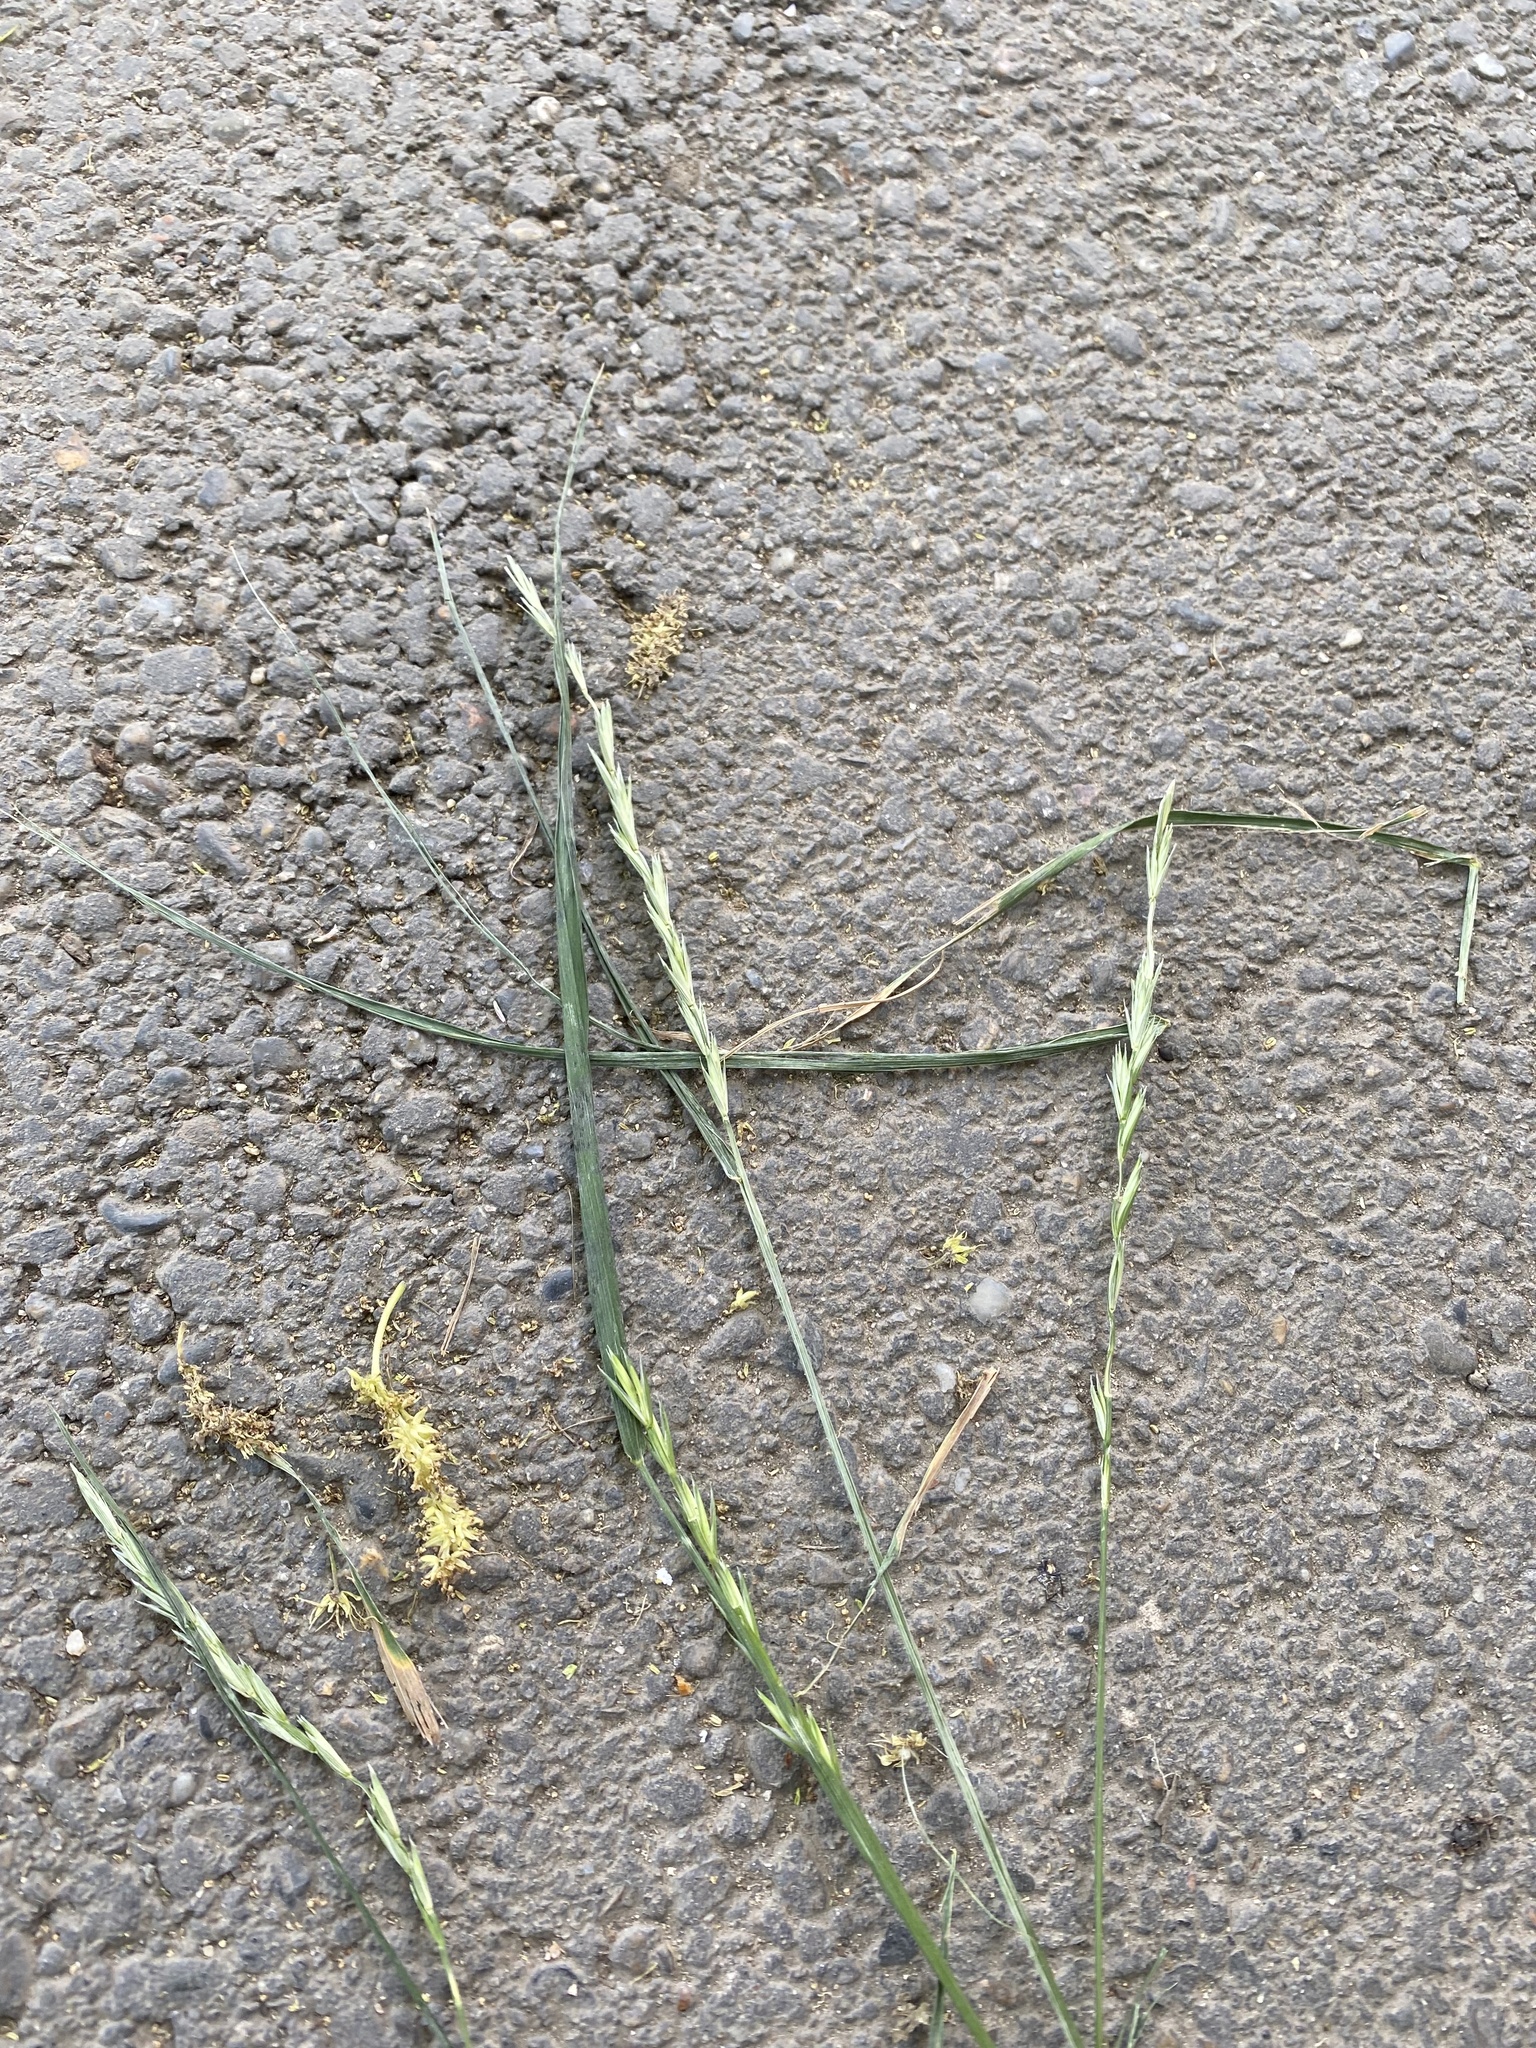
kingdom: Plantae
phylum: Tracheophyta
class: Liliopsida
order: Poales
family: Poaceae
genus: Elymus
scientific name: Elymus repens
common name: Quackgrass
